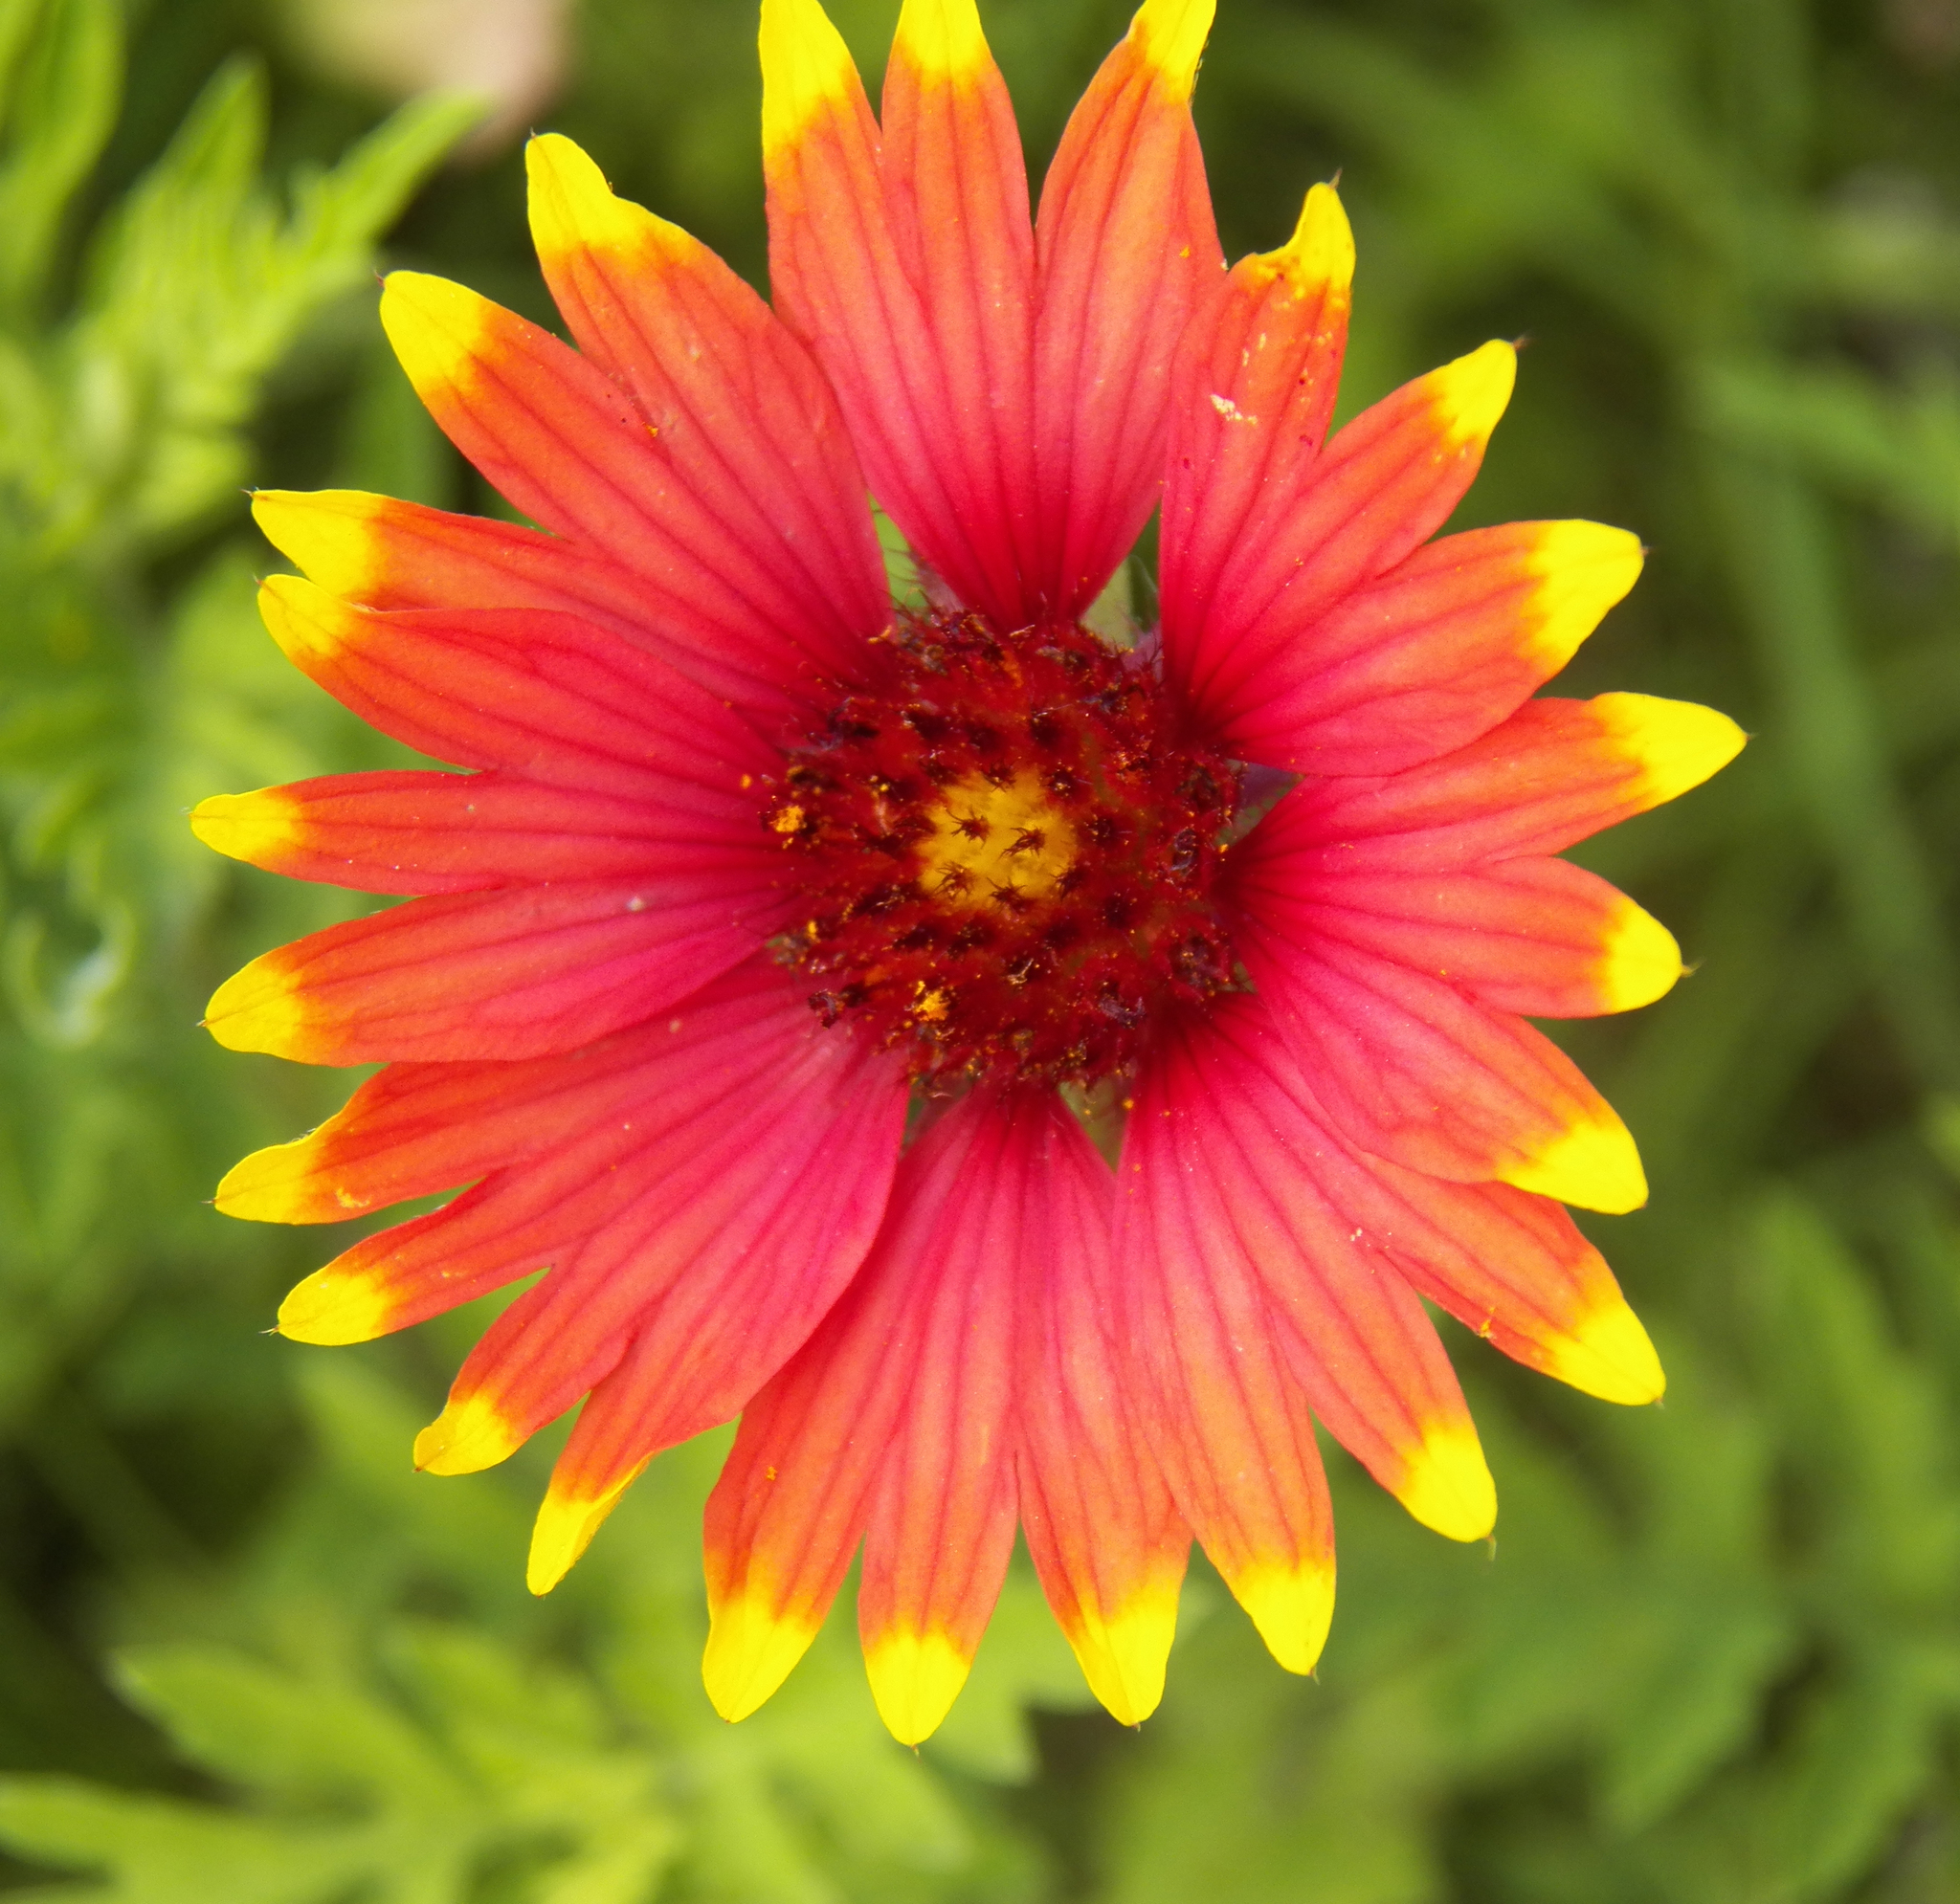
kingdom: Plantae
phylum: Tracheophyta
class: Magnoliopsida
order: Asterales
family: Asteraceae
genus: Gaillardia
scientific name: Gaillardia pulchella
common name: Firewheel
